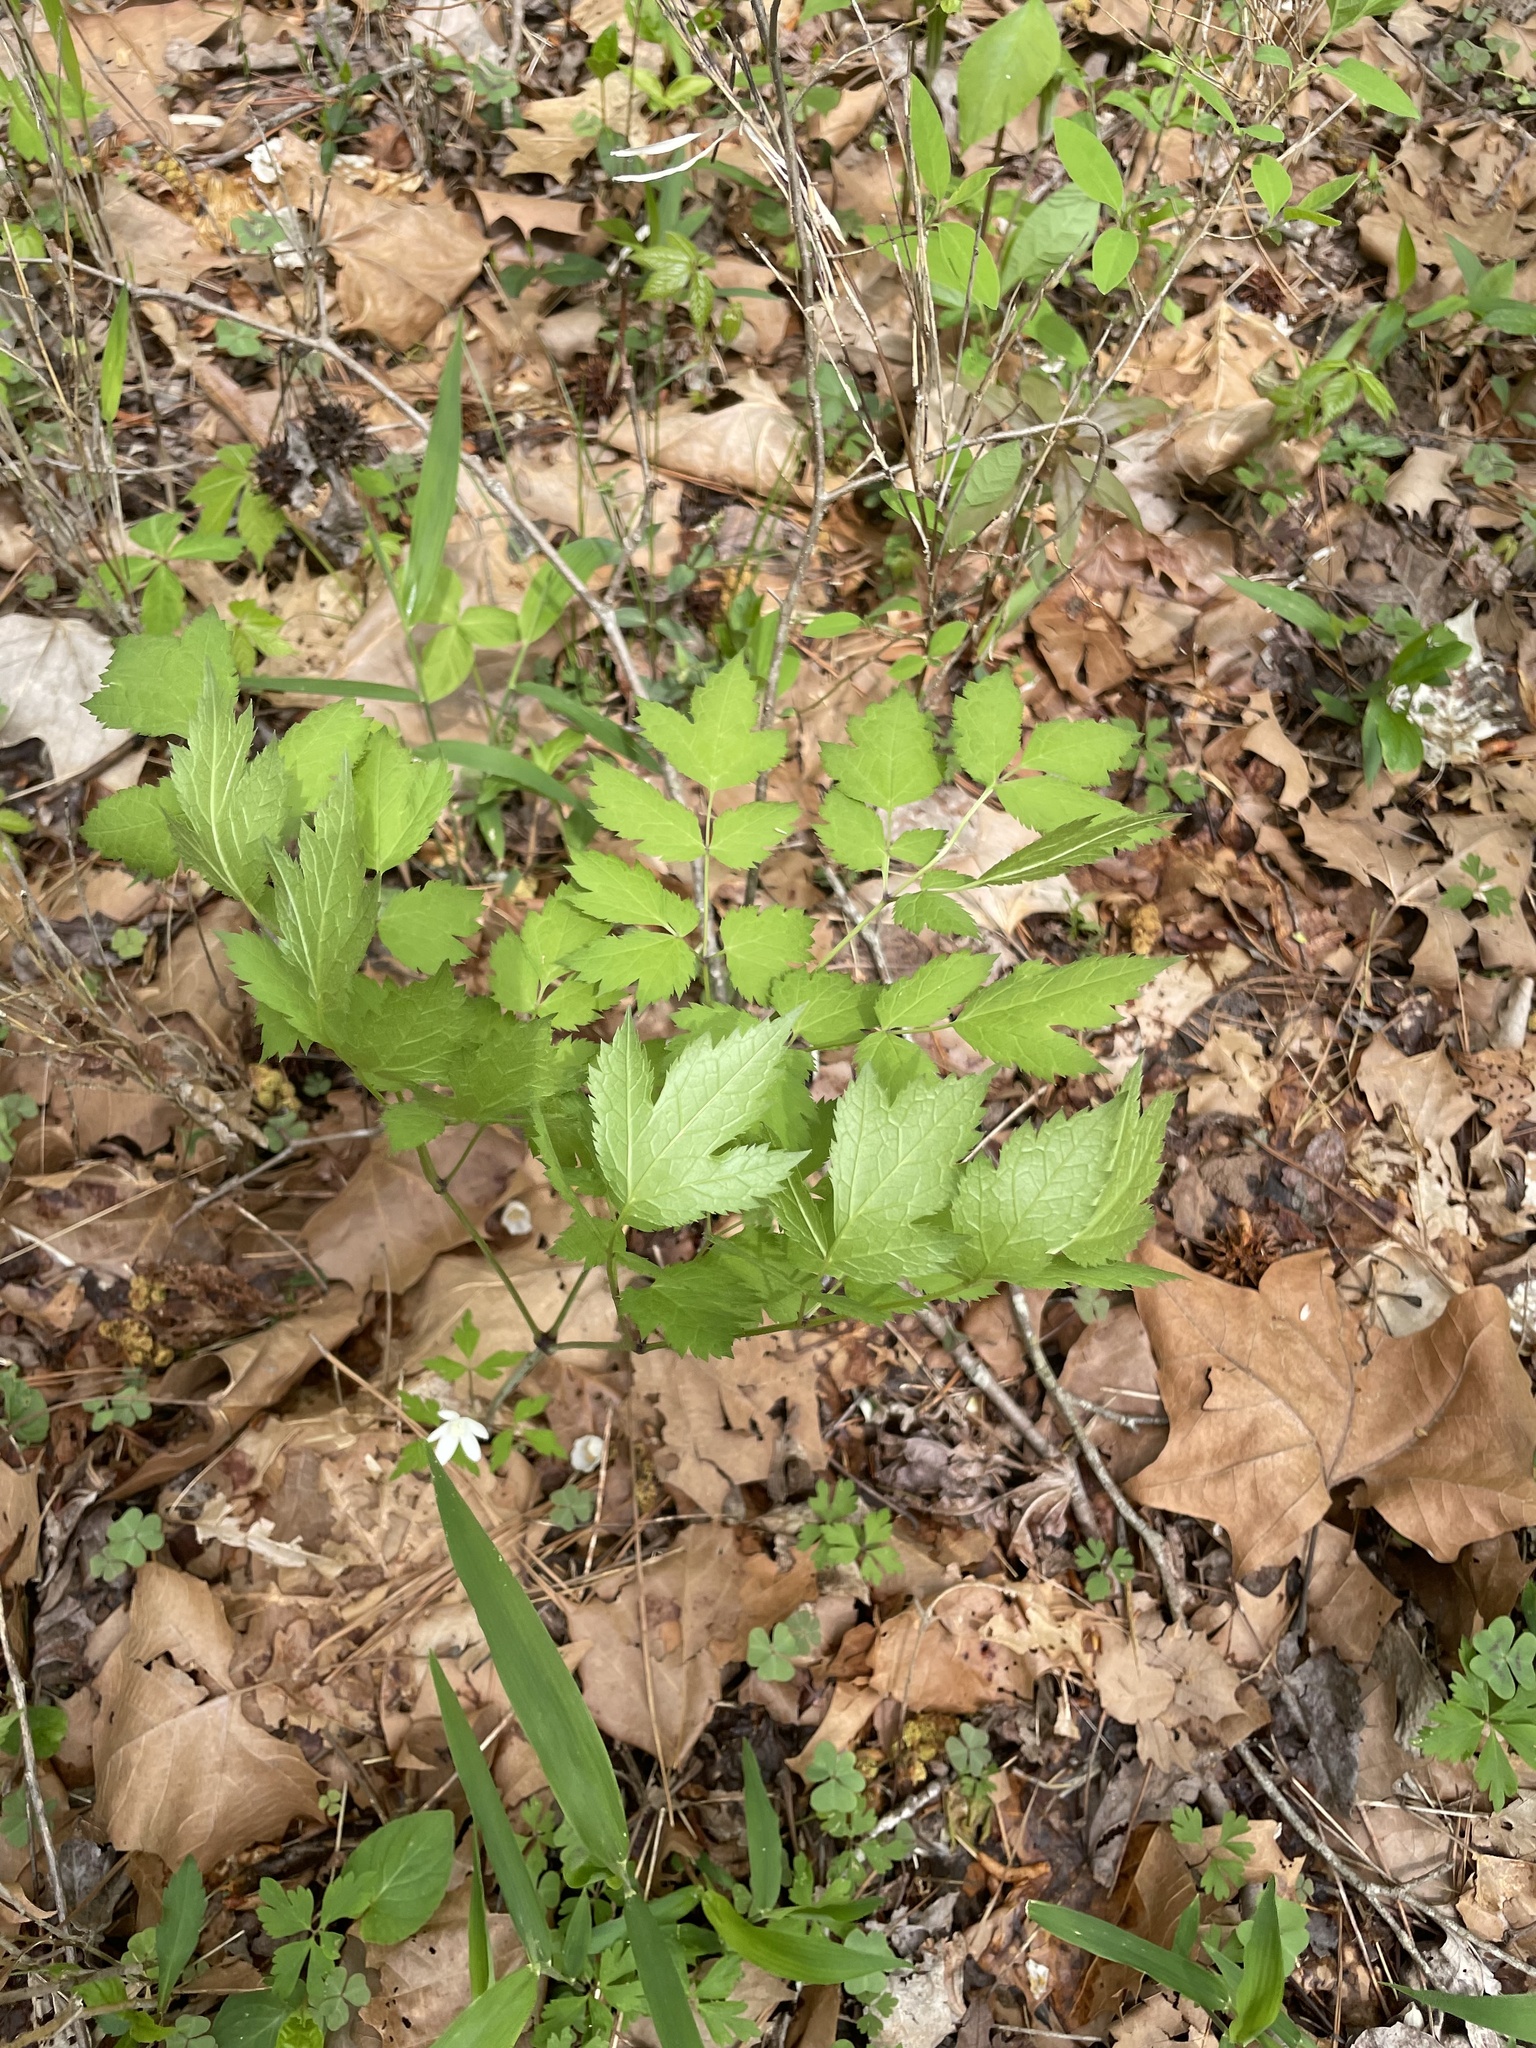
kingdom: Plantae
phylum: Tracheophyta
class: Magnoliopsida
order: Ranunculales
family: Ranunculaceae
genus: Xanthorhiza
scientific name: Xanthorhiza simplicissima
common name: Yellowroot
